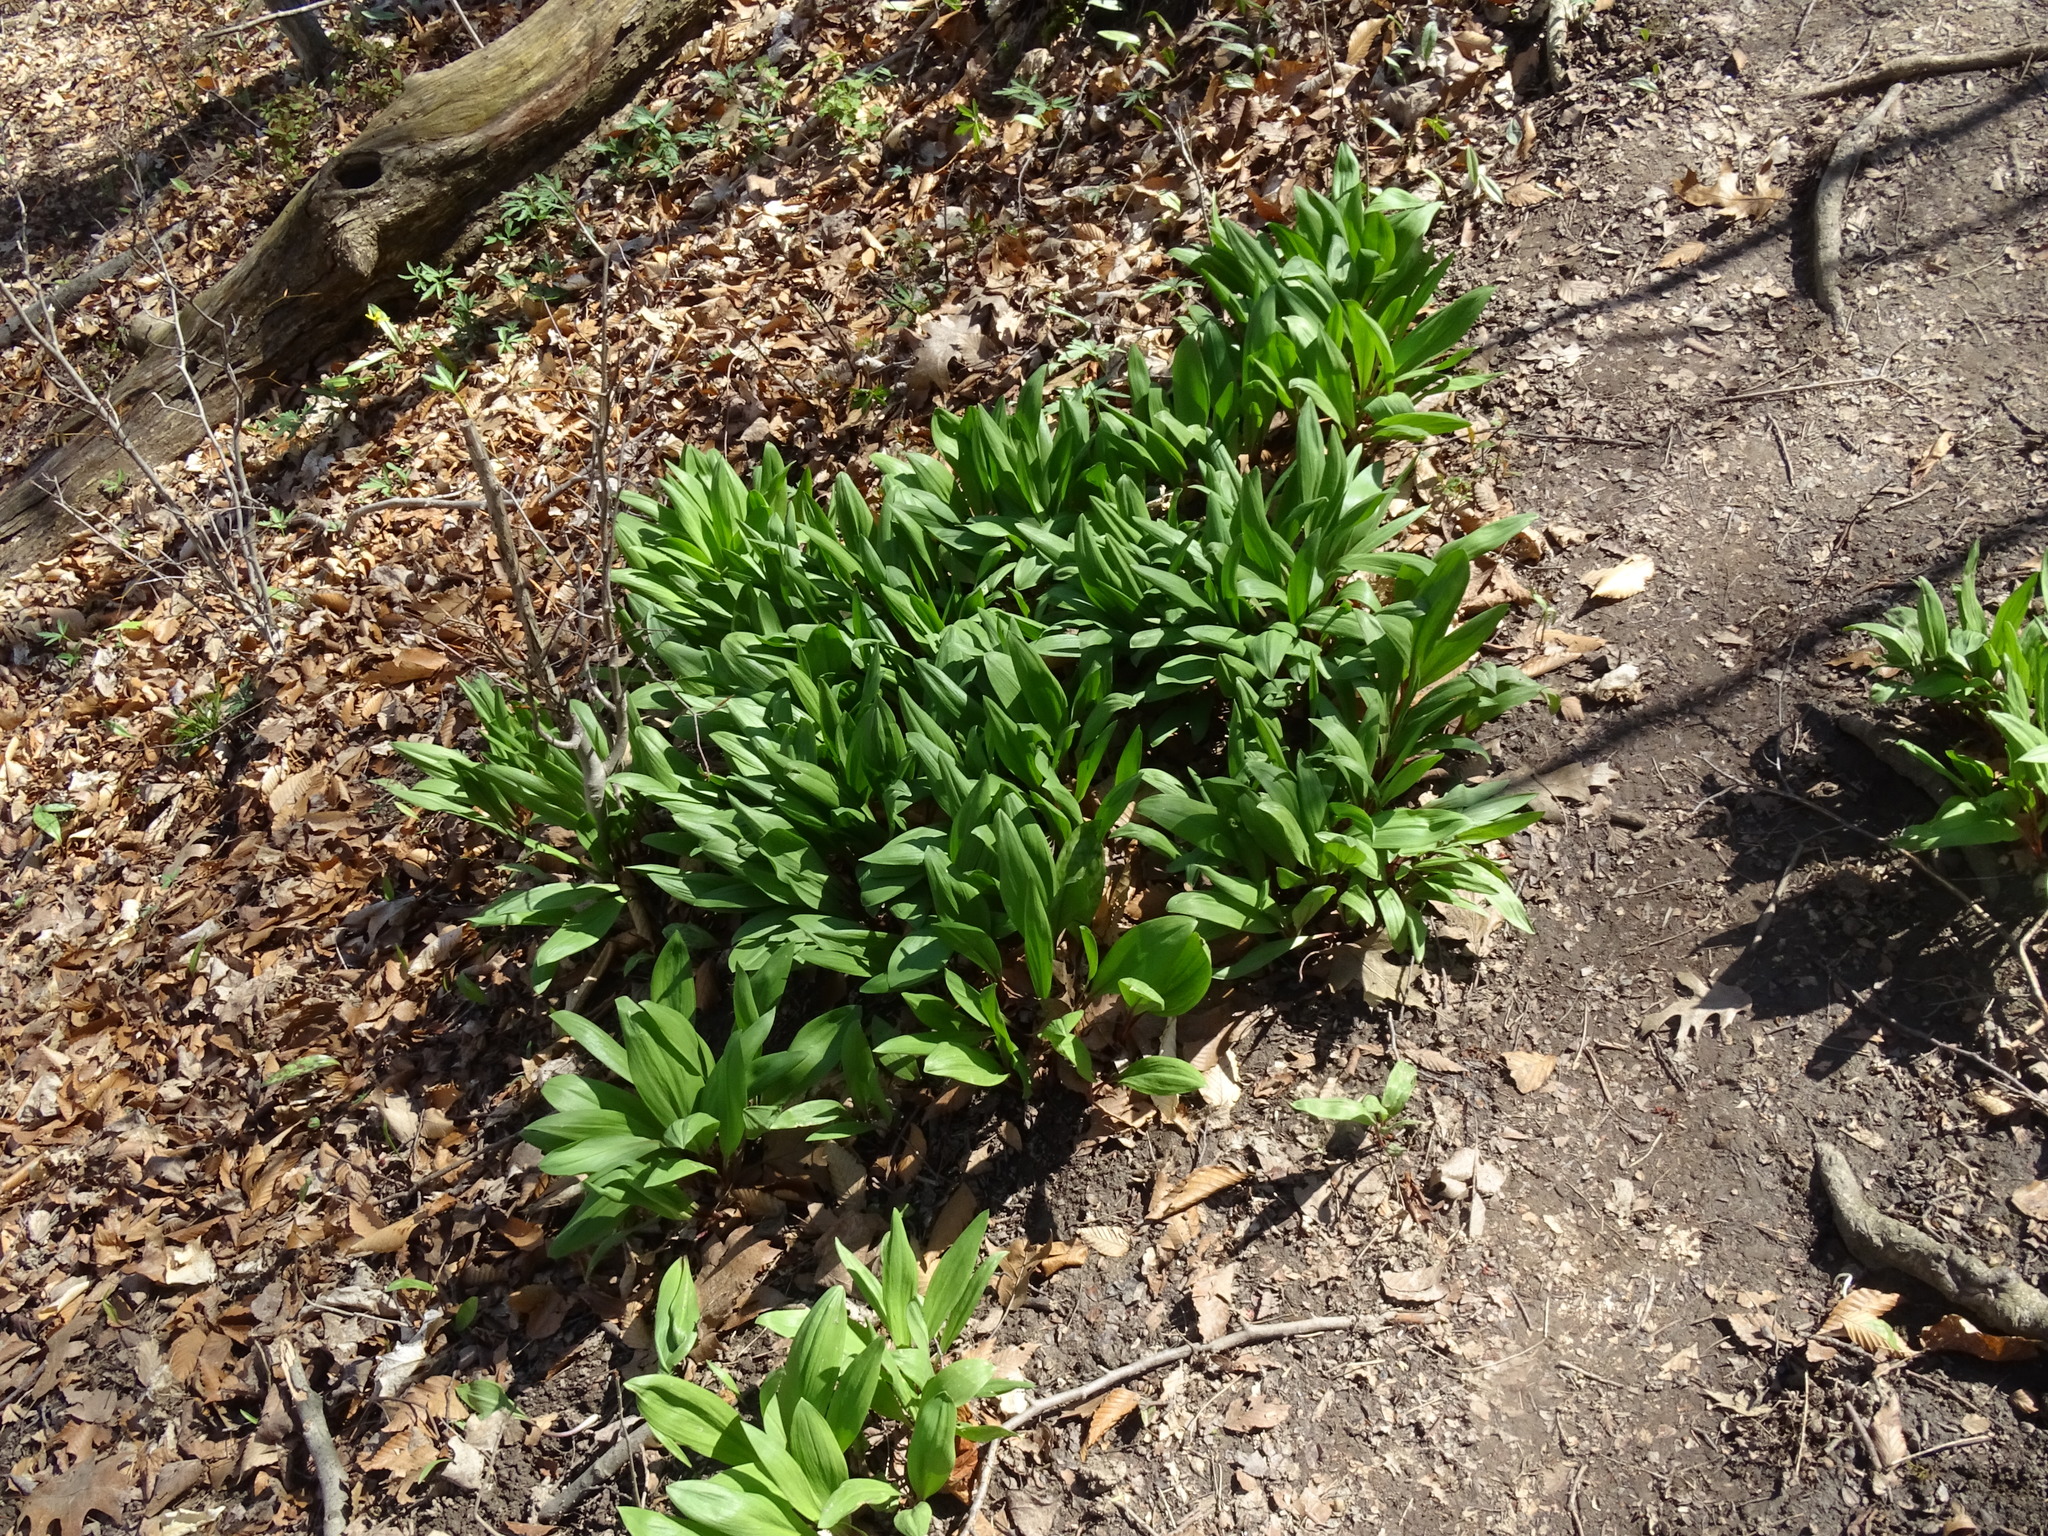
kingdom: Plantae
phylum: Tracheophyta
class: Liliopsida
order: Asparagales
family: Amaryllidaceae
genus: Allium
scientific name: Allium tricoccum
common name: Ramp
